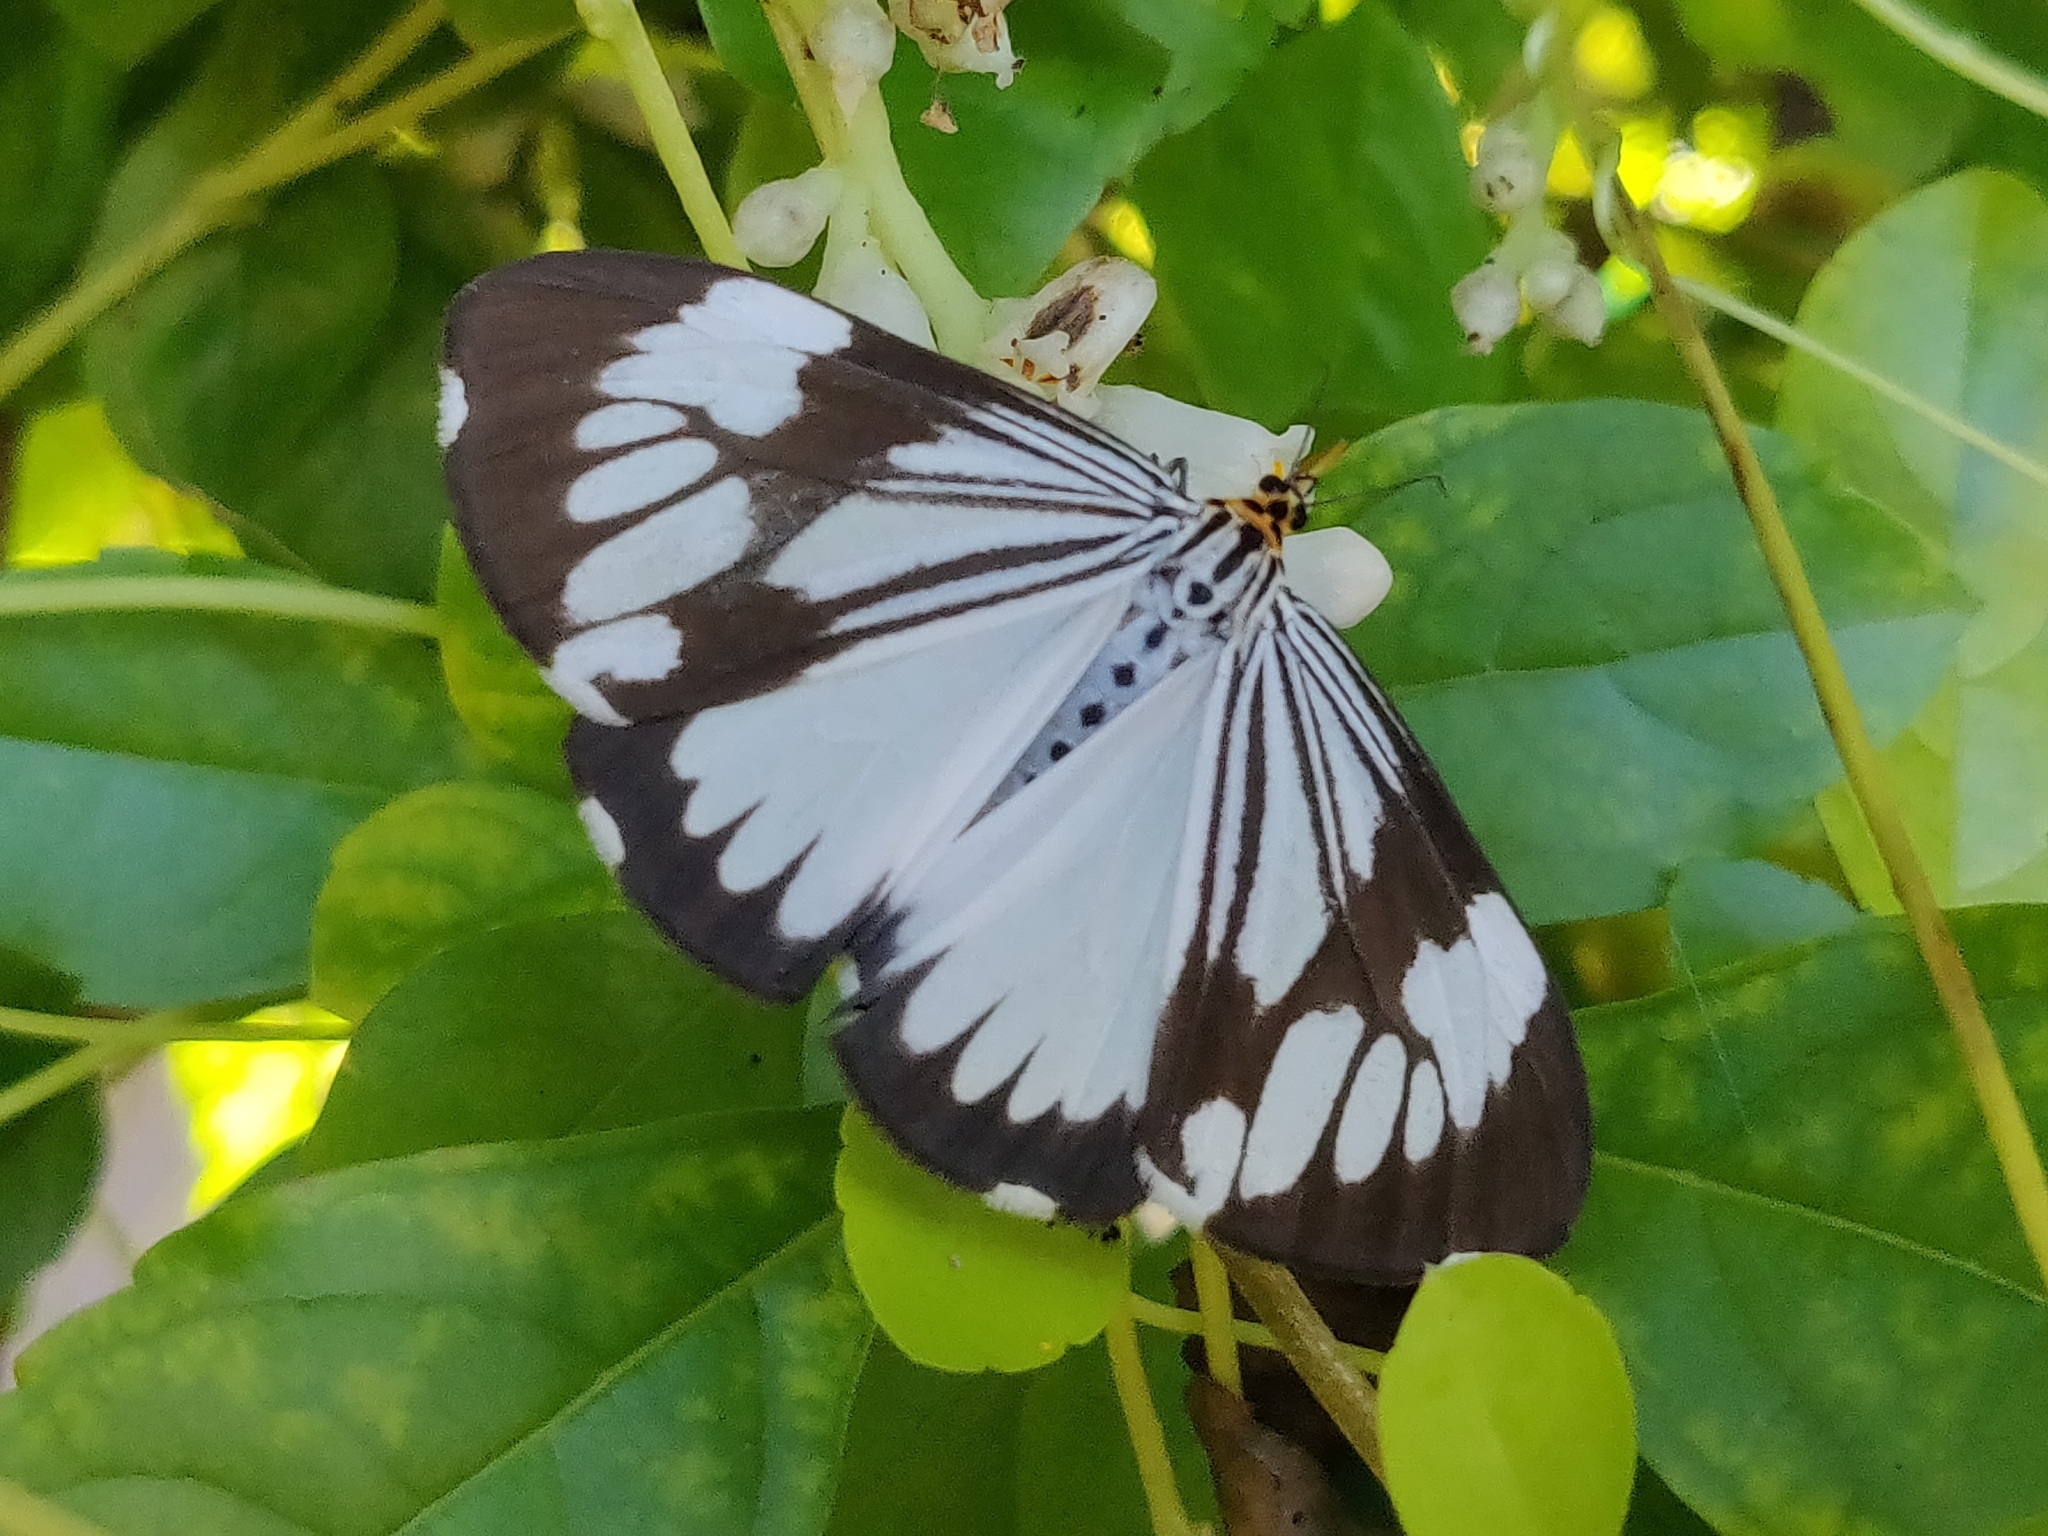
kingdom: Animalia
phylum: Arthropoda
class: Insecta
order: Lepidoptera
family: Erebidae
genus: Nyctemera
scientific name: Nyctemera coleta
